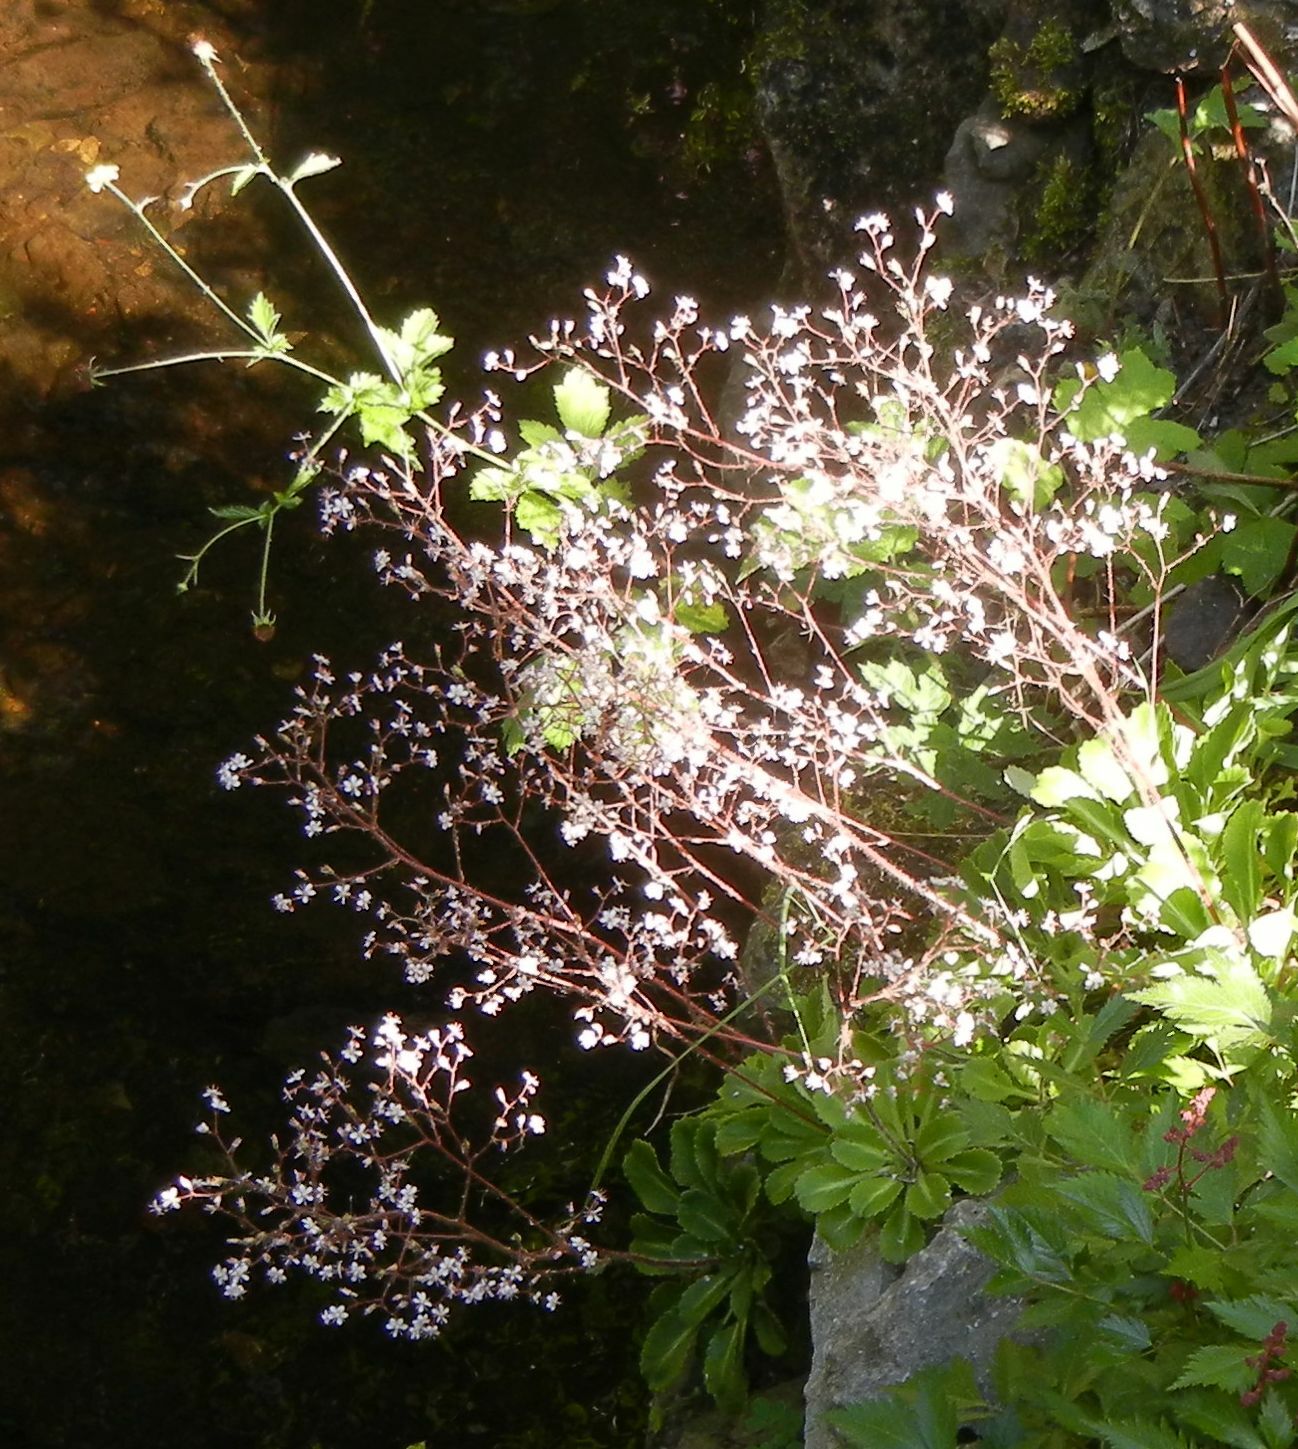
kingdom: Plantae
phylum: Tracheophyta
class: Magnoliopsida
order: Saxifragales
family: Saxifragaceae
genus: Saxifraga
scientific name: Saxifraga urbium
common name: Londonpride
